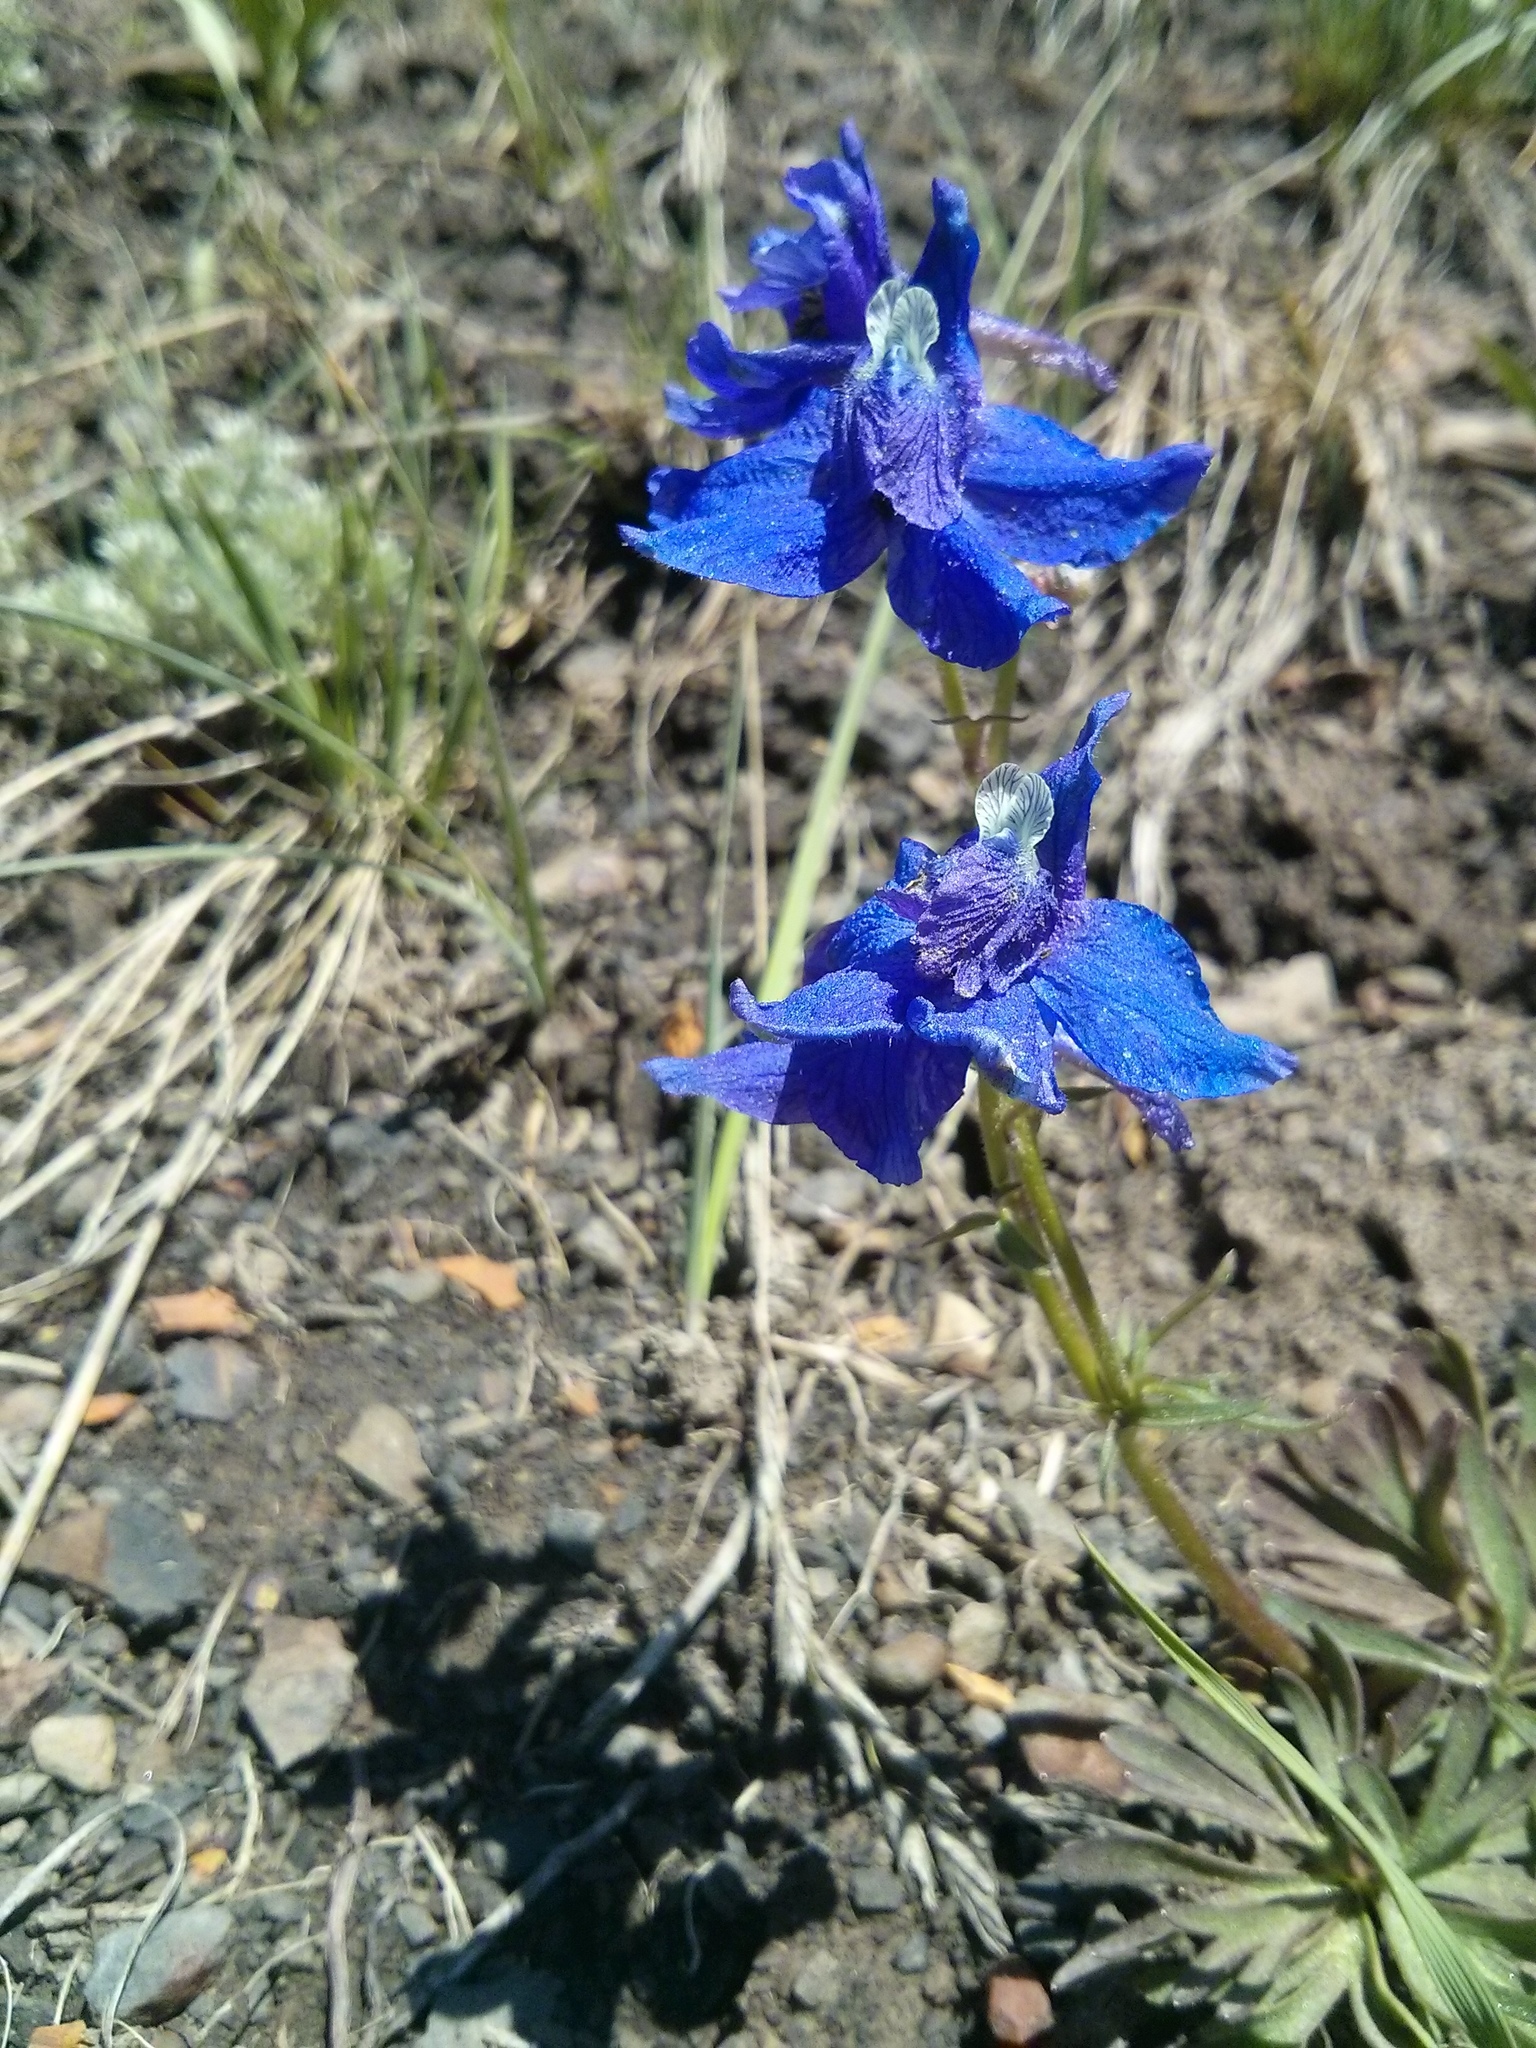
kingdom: Plantae
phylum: Tracheophyta
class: Magnoliopsida
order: Ranunculales
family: Ranunculaceae
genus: Delphinium
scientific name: Delphinium bicolor
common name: Low larkspur
